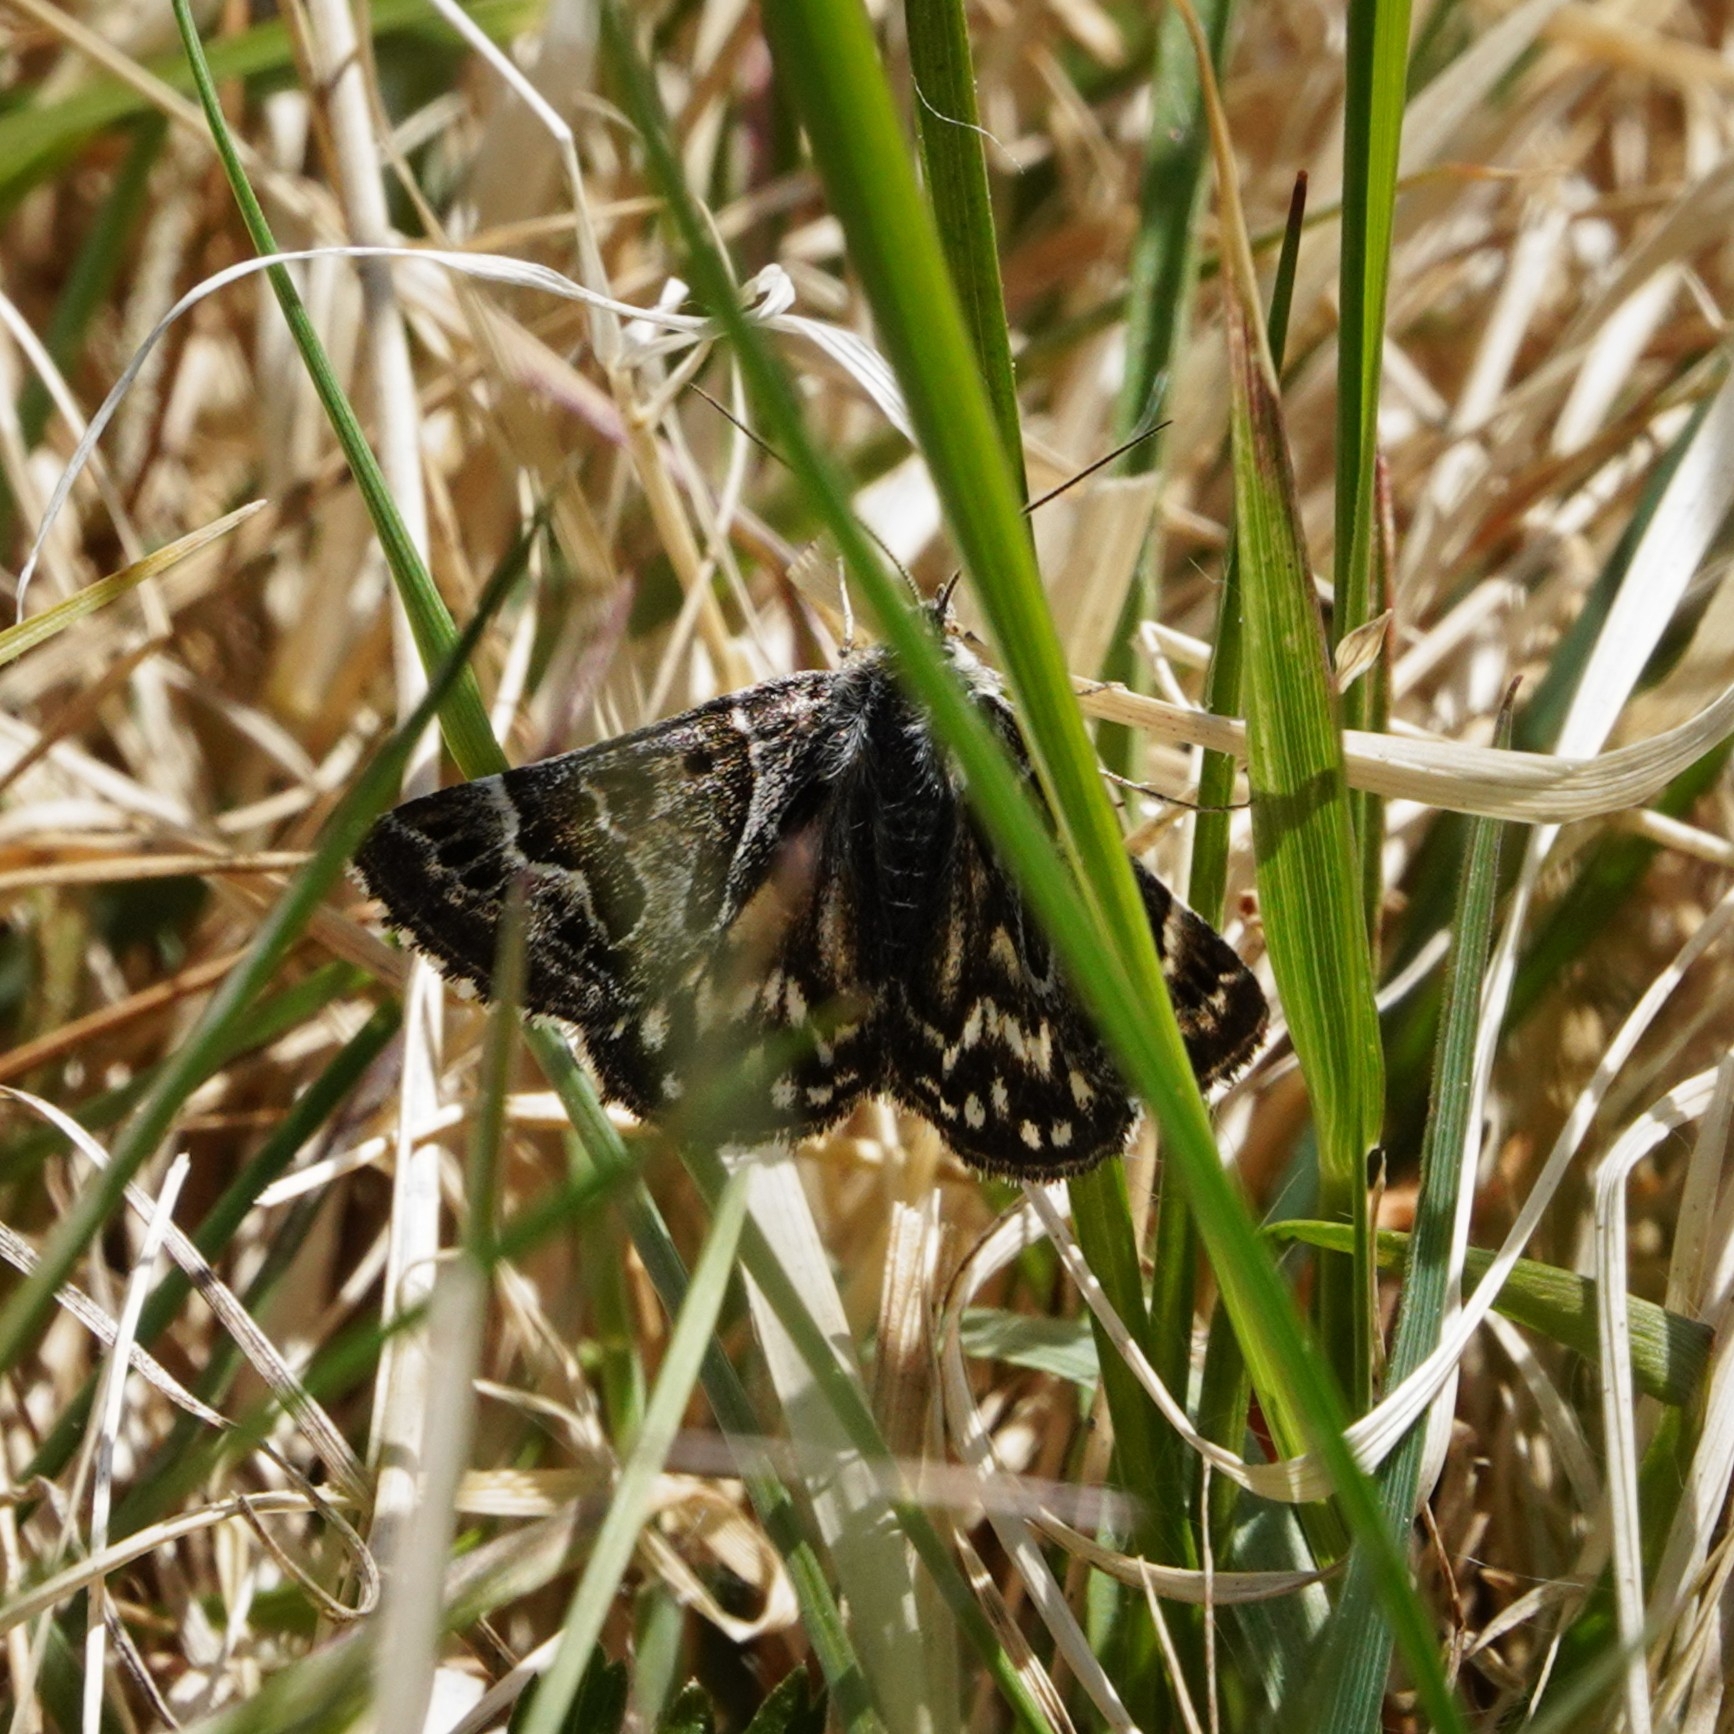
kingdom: Animalia
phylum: Arthropoda
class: Insecta
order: Lepidoptera
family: Erebidae
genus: Callistege
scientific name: Callistege mi
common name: Mother shipton
